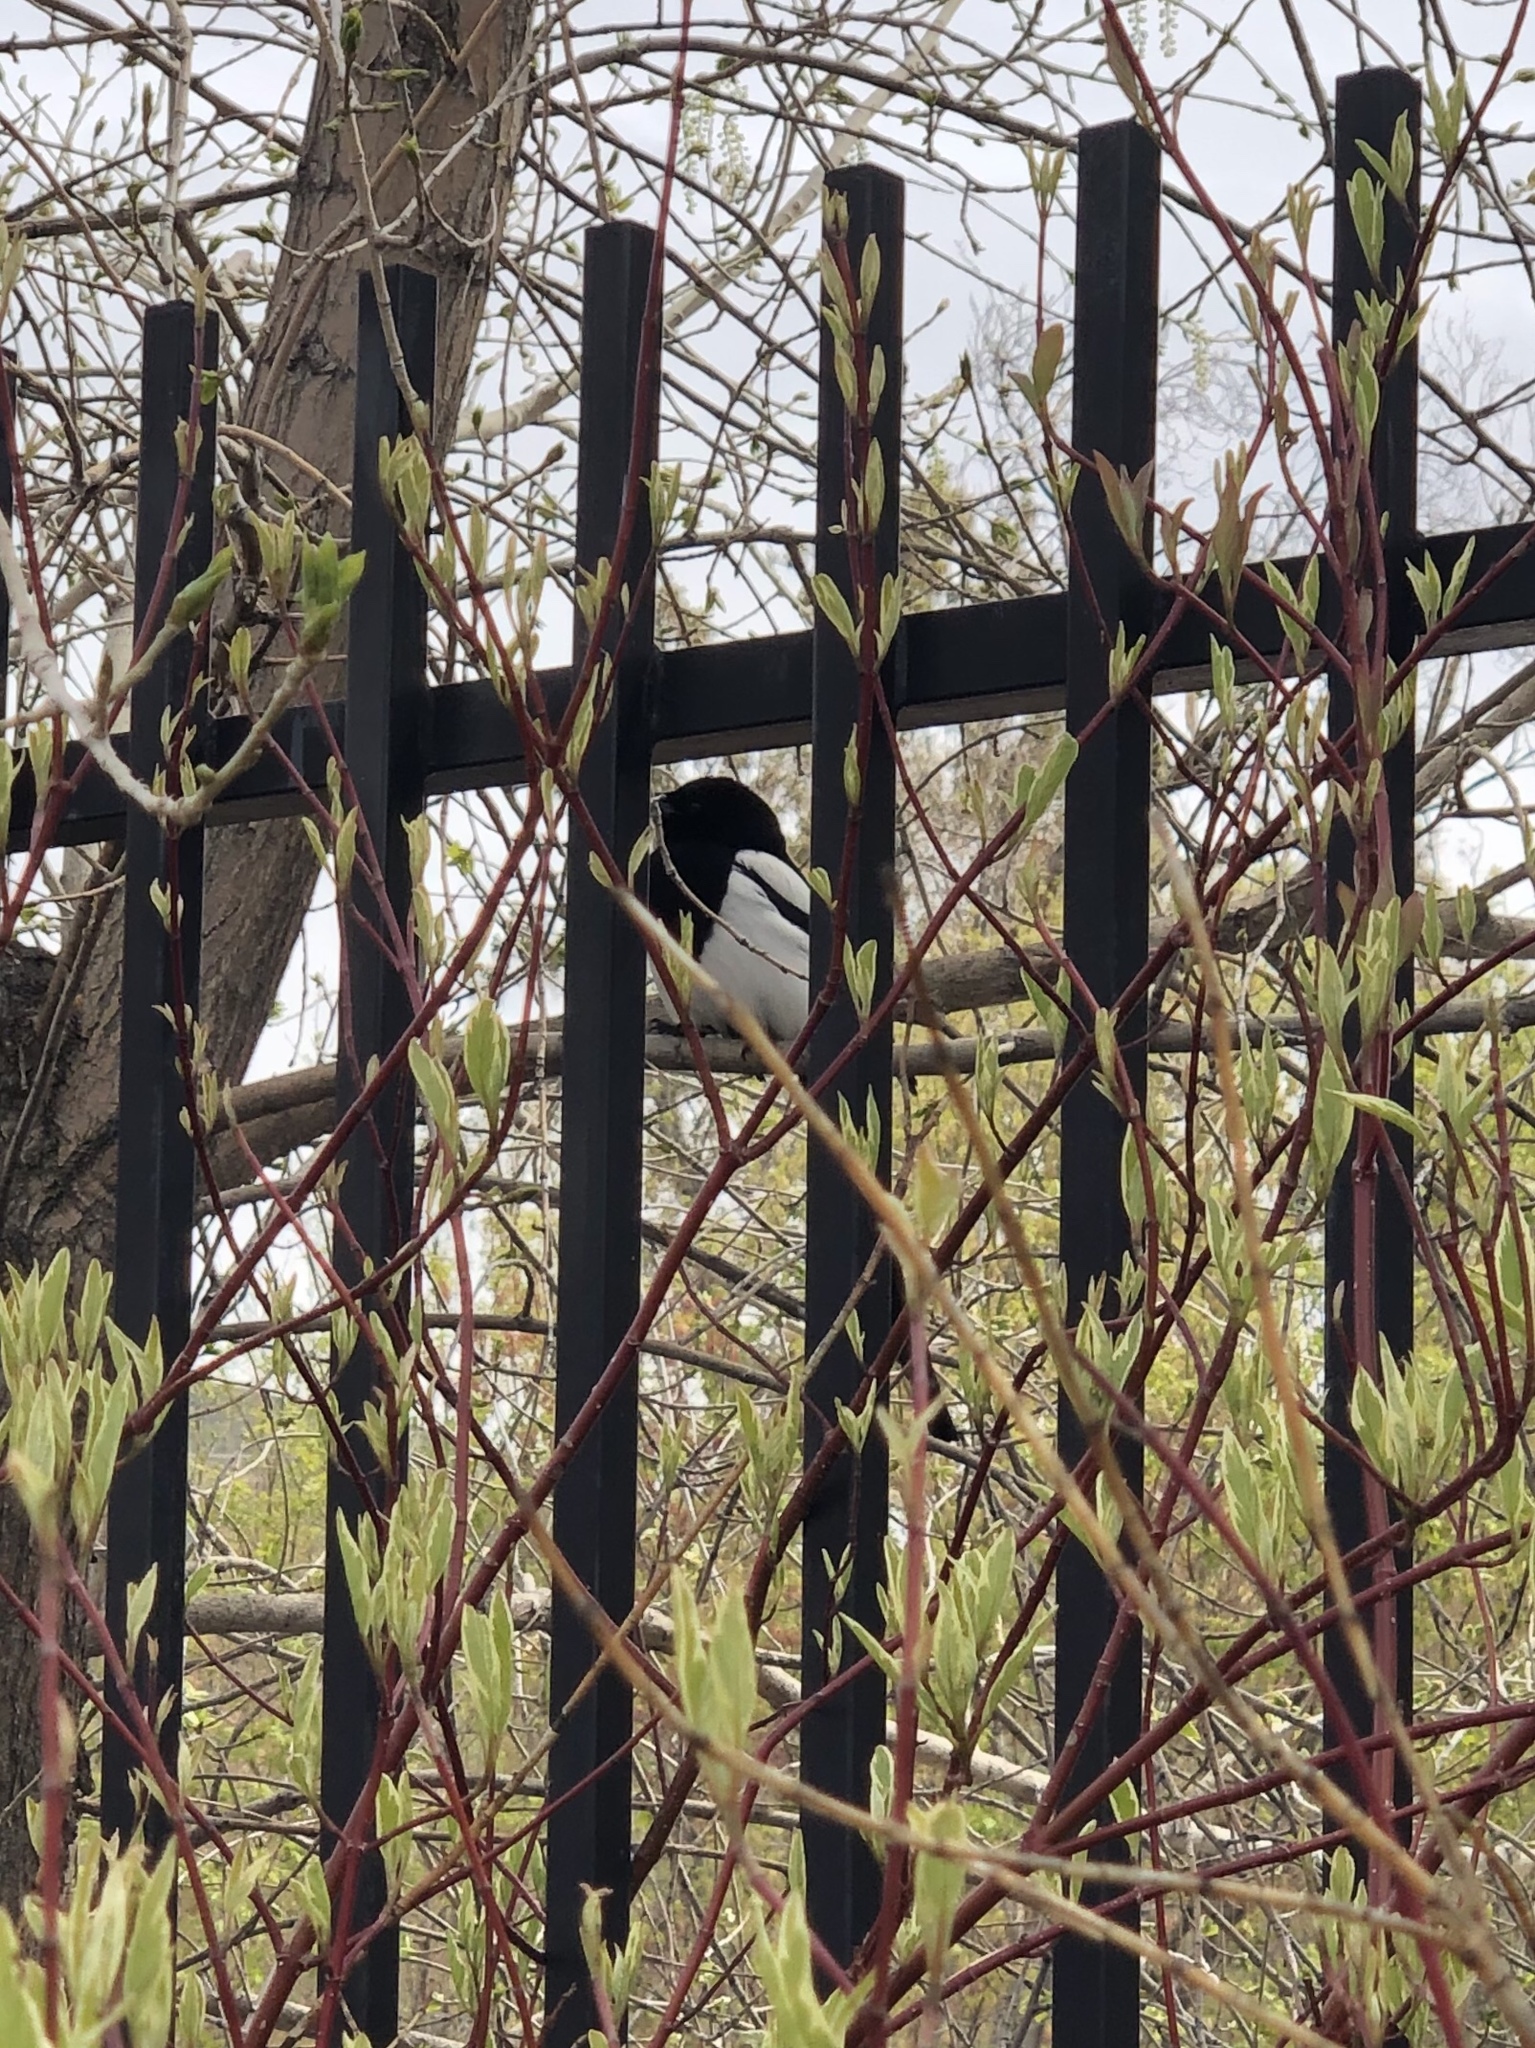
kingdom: Animalia
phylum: Chordata
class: Aves
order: Passeriformes
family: Corvidae
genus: Pica
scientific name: Pica hudsonia
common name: Black-billed magpie
